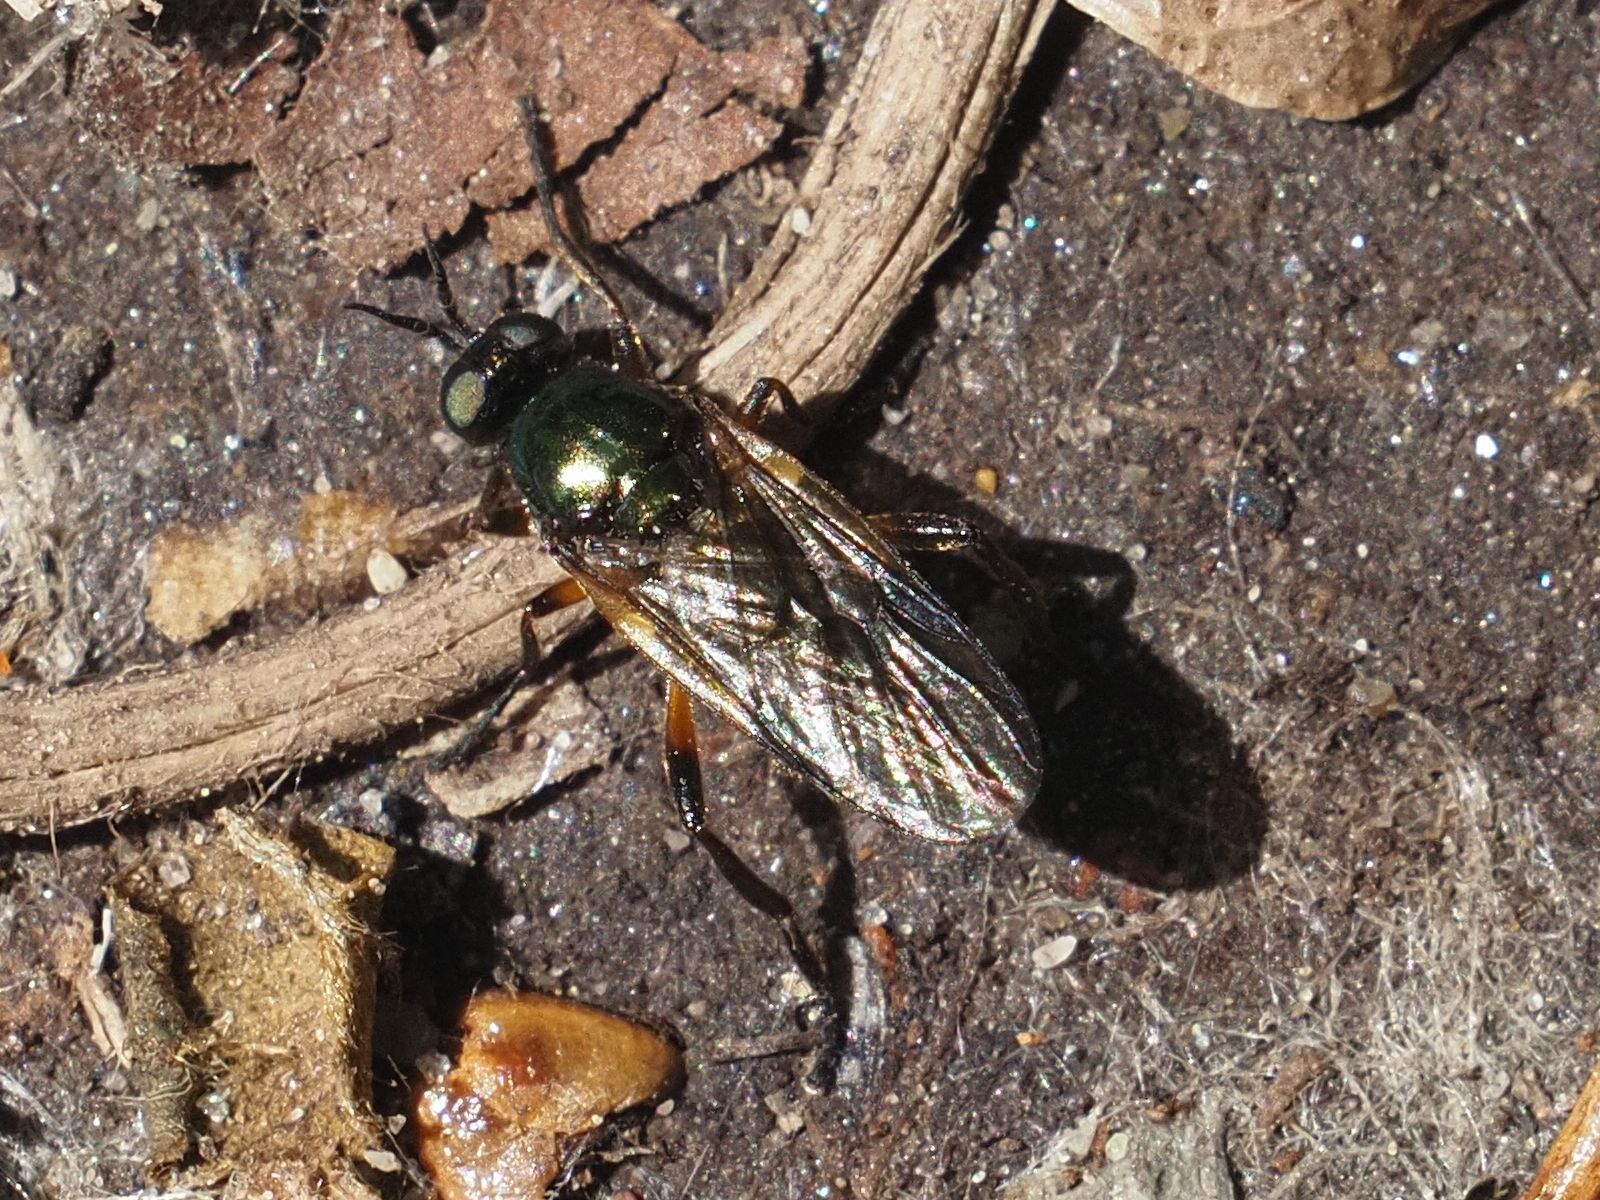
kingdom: Animalia
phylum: Arthropoda
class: Insecta
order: Diptera
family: Stratiomyidae
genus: Actina
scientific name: Actina chalybea
